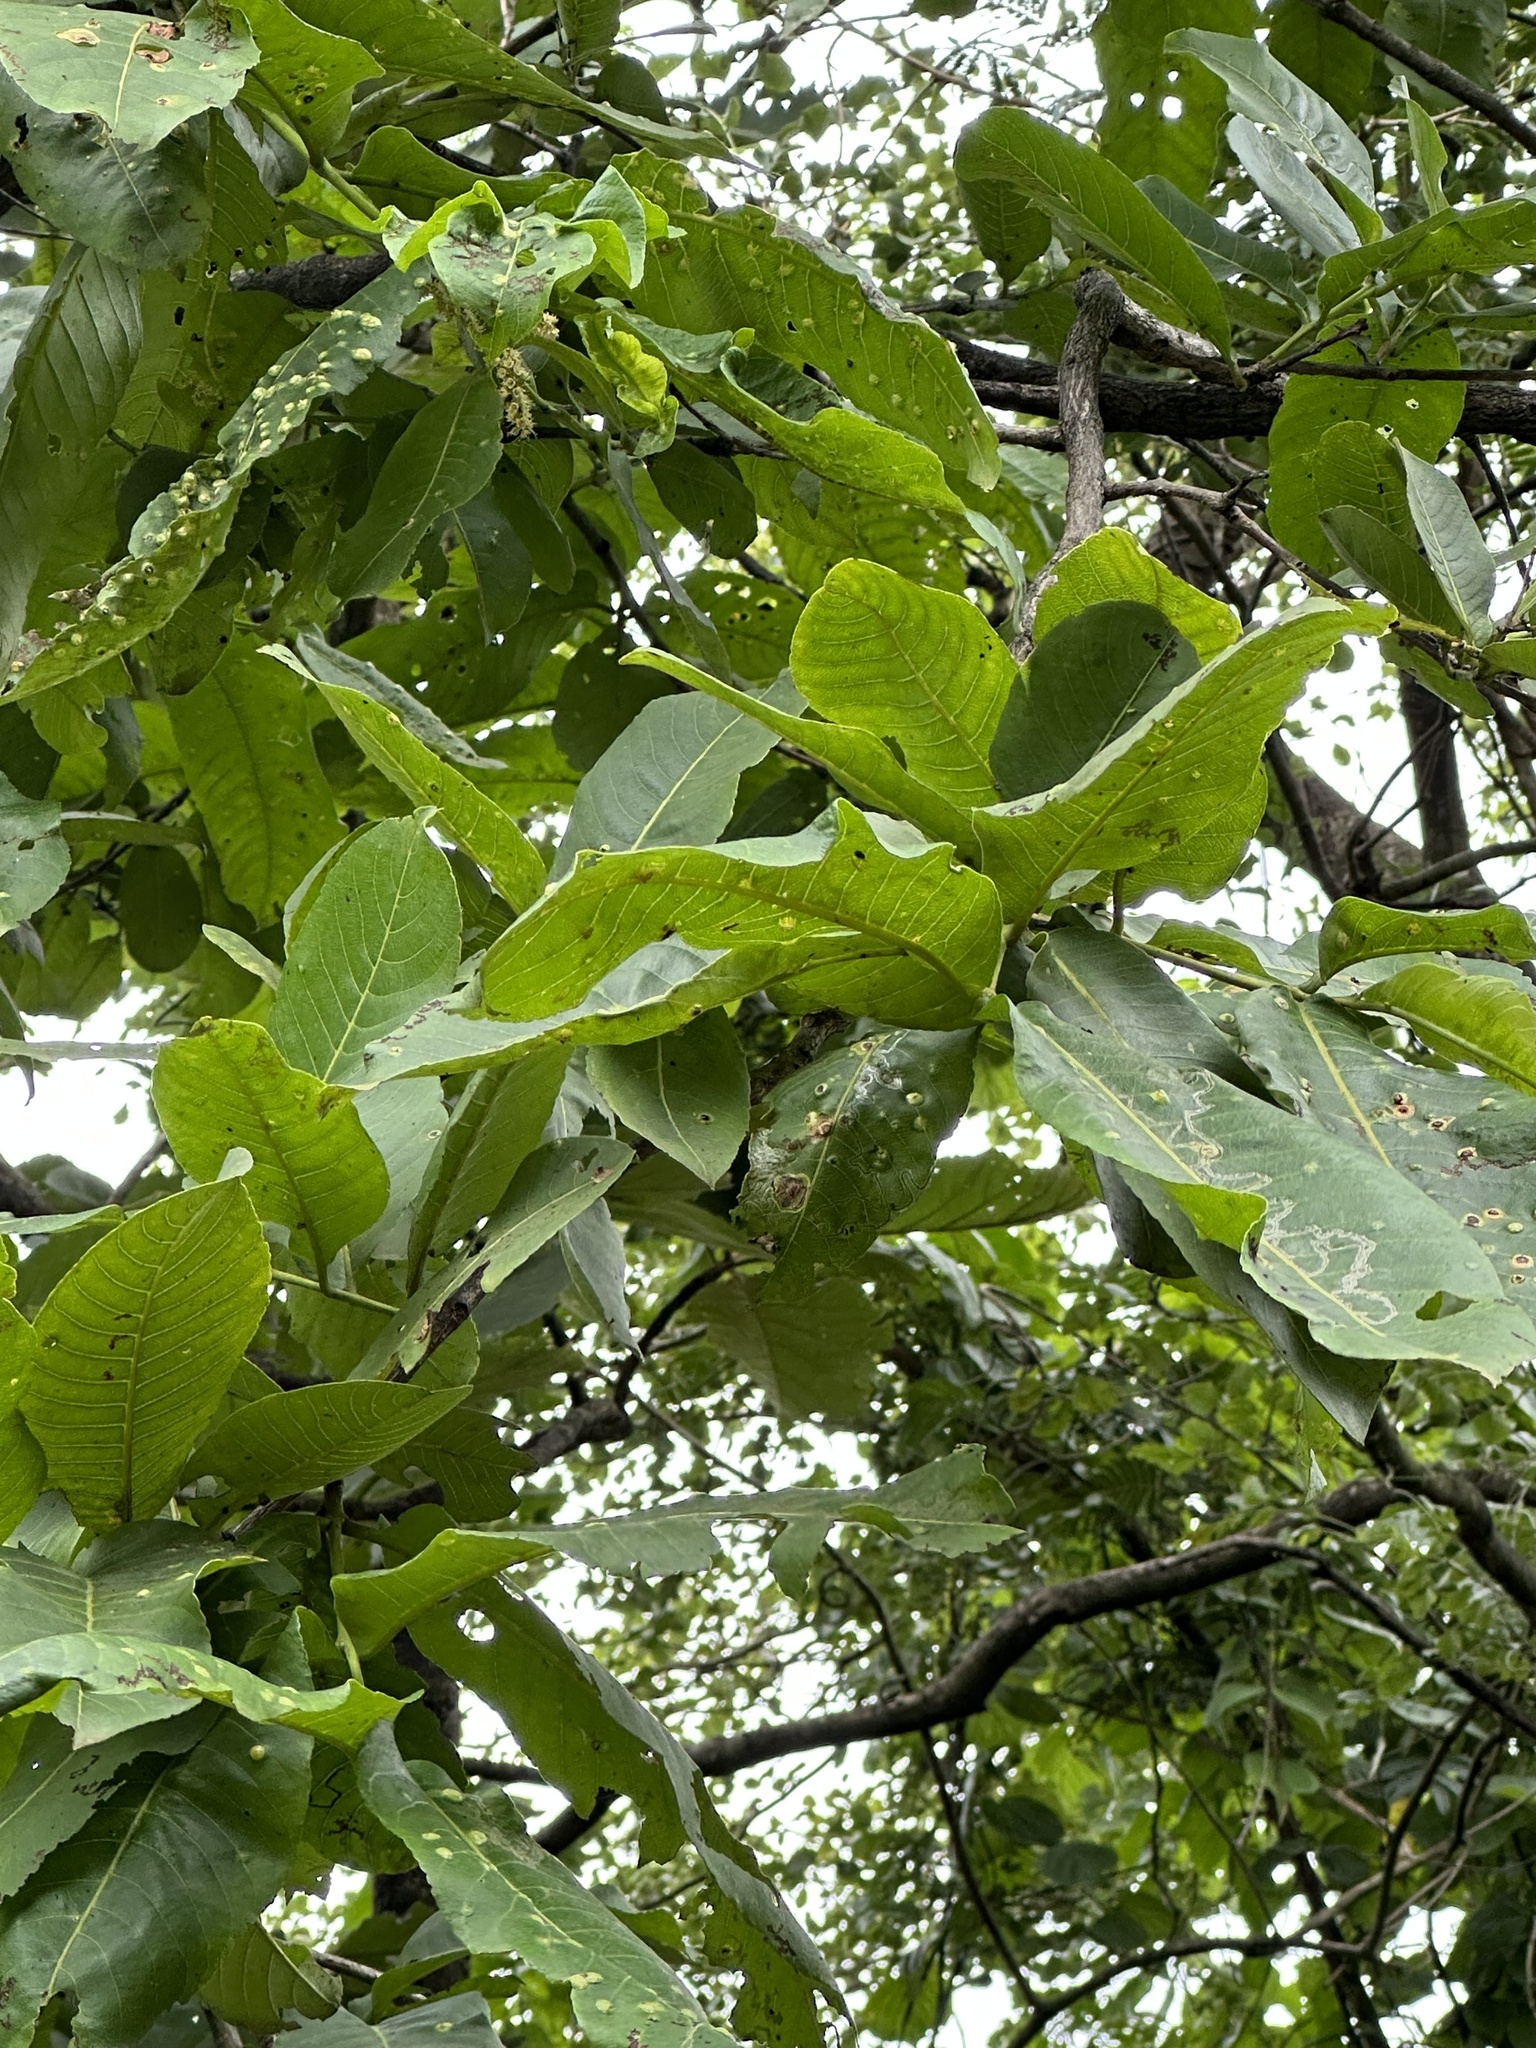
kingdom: Plantae
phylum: Tracheophyta
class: Magnoliopsida
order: Myrtales
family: Combretaceae
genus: Terminalia
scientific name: Terminalia elliptica
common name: Indian-laurel
